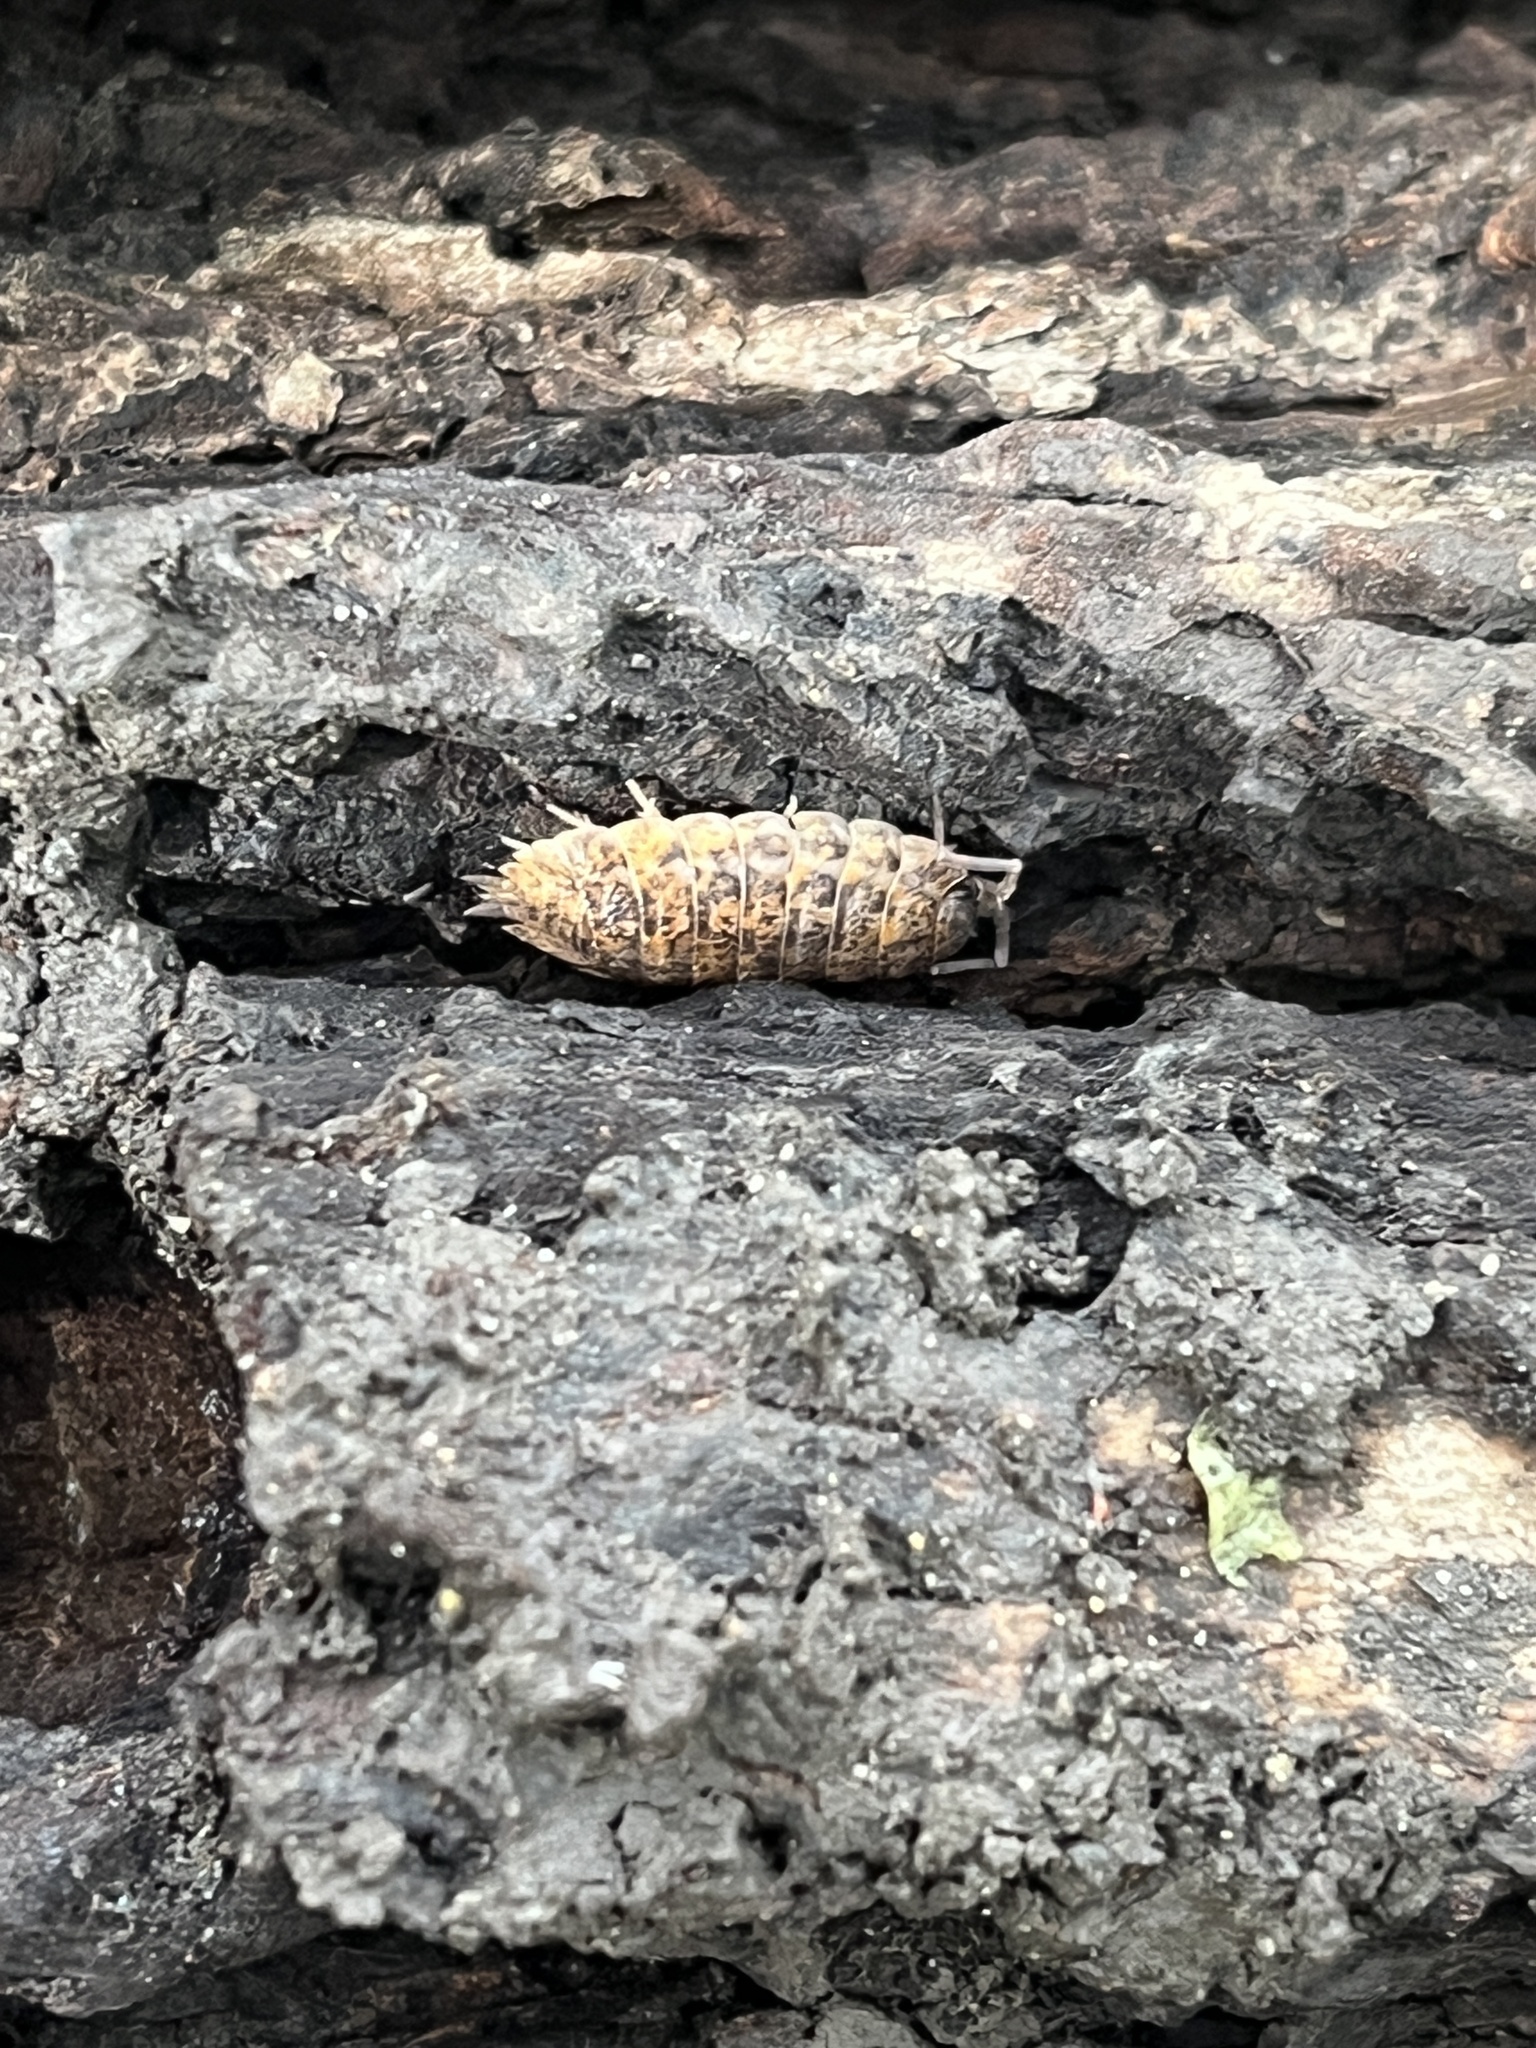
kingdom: Animalia
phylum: Arthropoda
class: Malacostraca
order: Isopoda
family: Trachelipodidae
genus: Trachelipus
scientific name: Trachelipus rathkii
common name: Isopod
